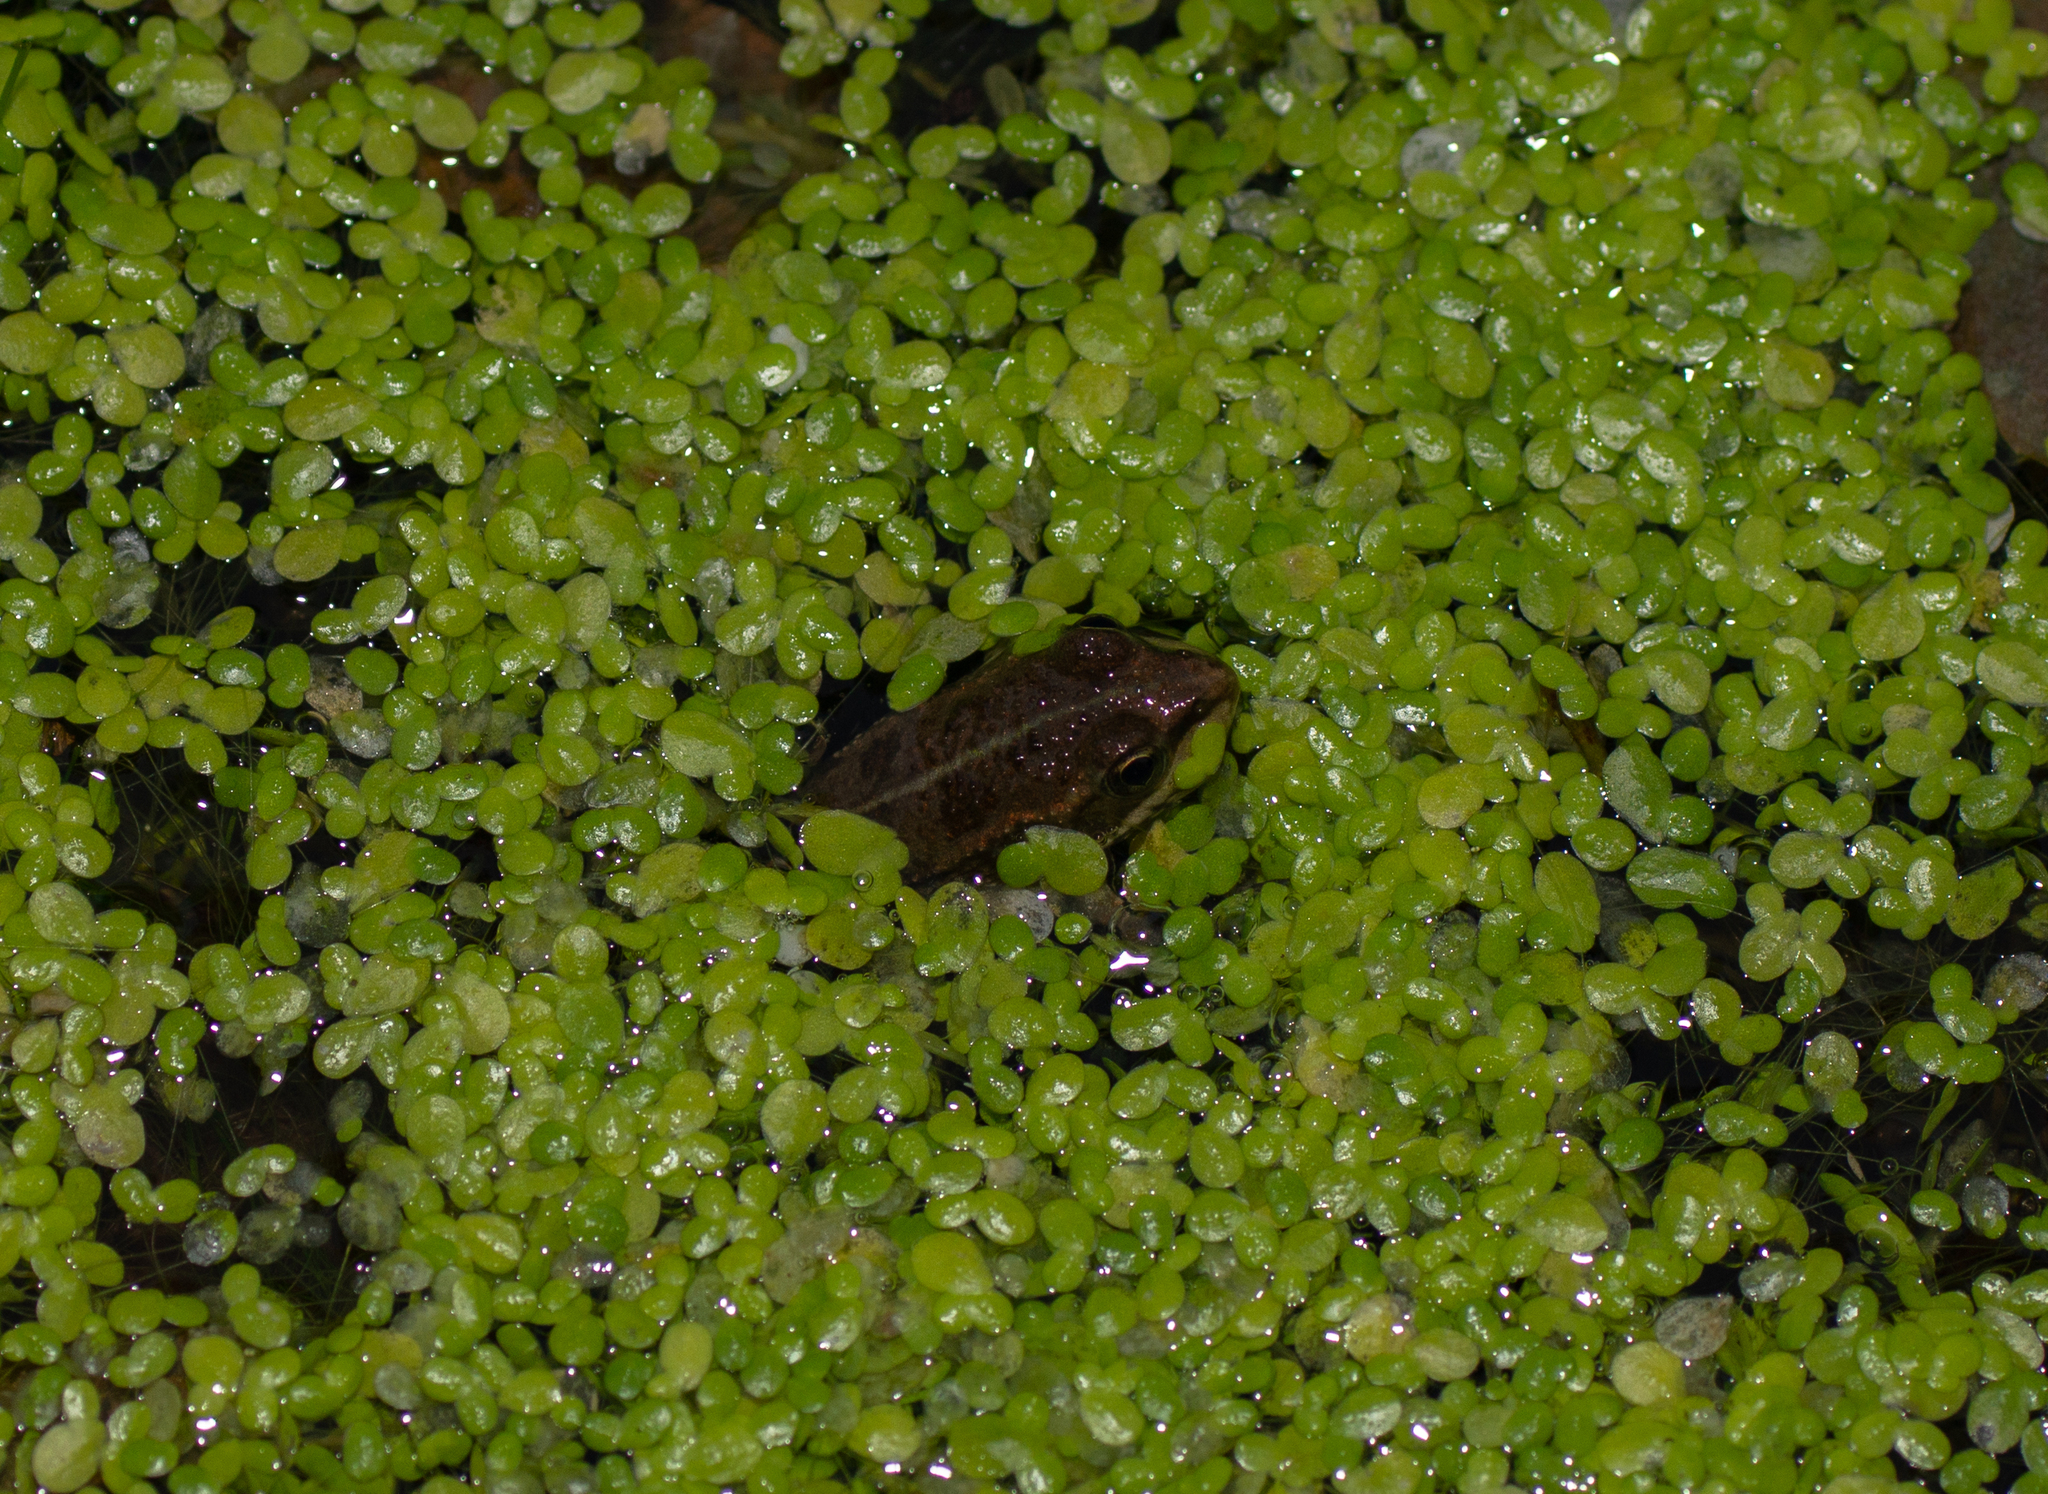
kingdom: Animalia
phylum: Chordata
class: Amphibia
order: Anura
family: Ranidae
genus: Pelophylax
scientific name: Pelophylax perezi
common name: Perez's frog
